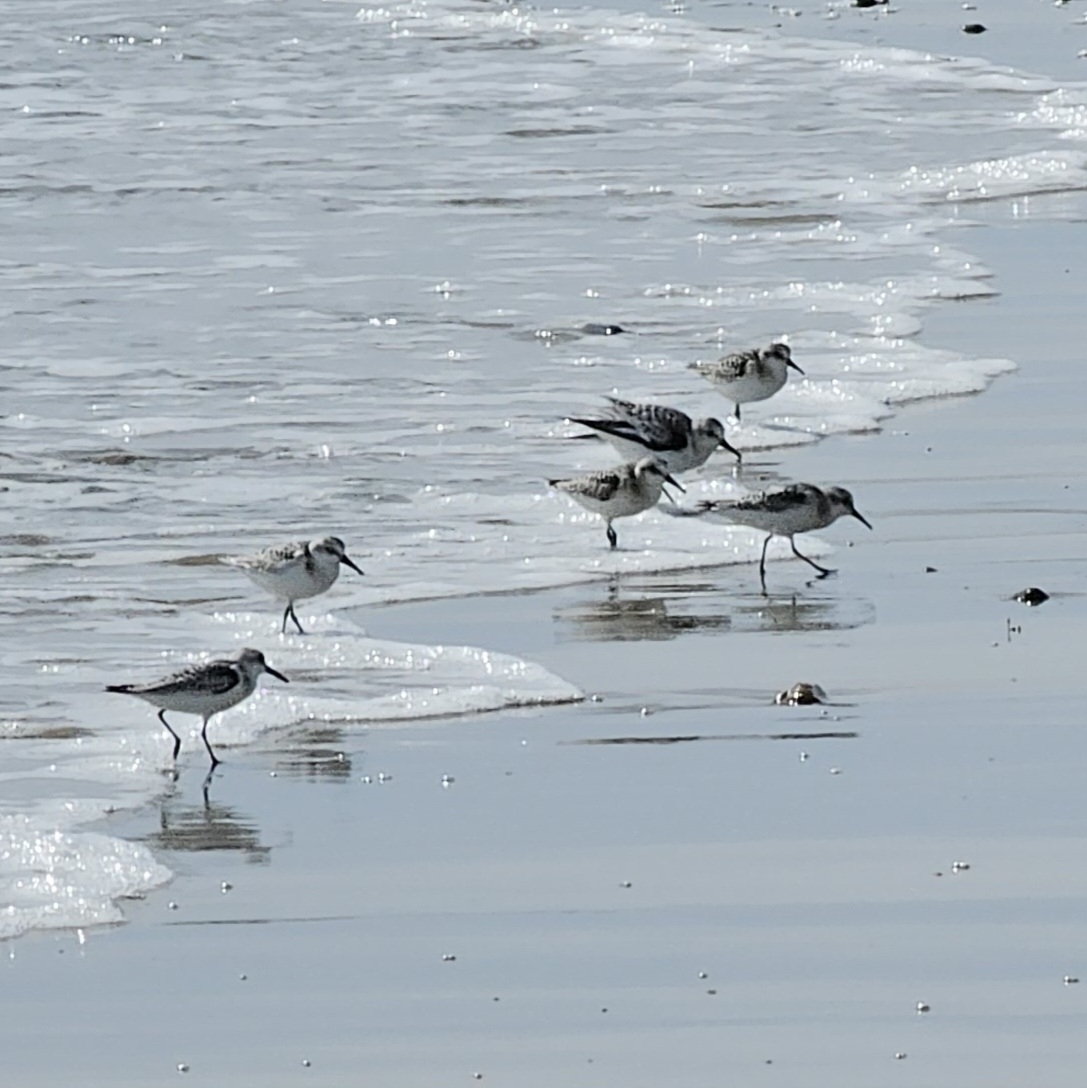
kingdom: Animalia
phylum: Chordata
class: Aves
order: Charadriiformes
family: Scolopacidae
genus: Calidris
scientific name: Calidris alba
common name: Sanderling
